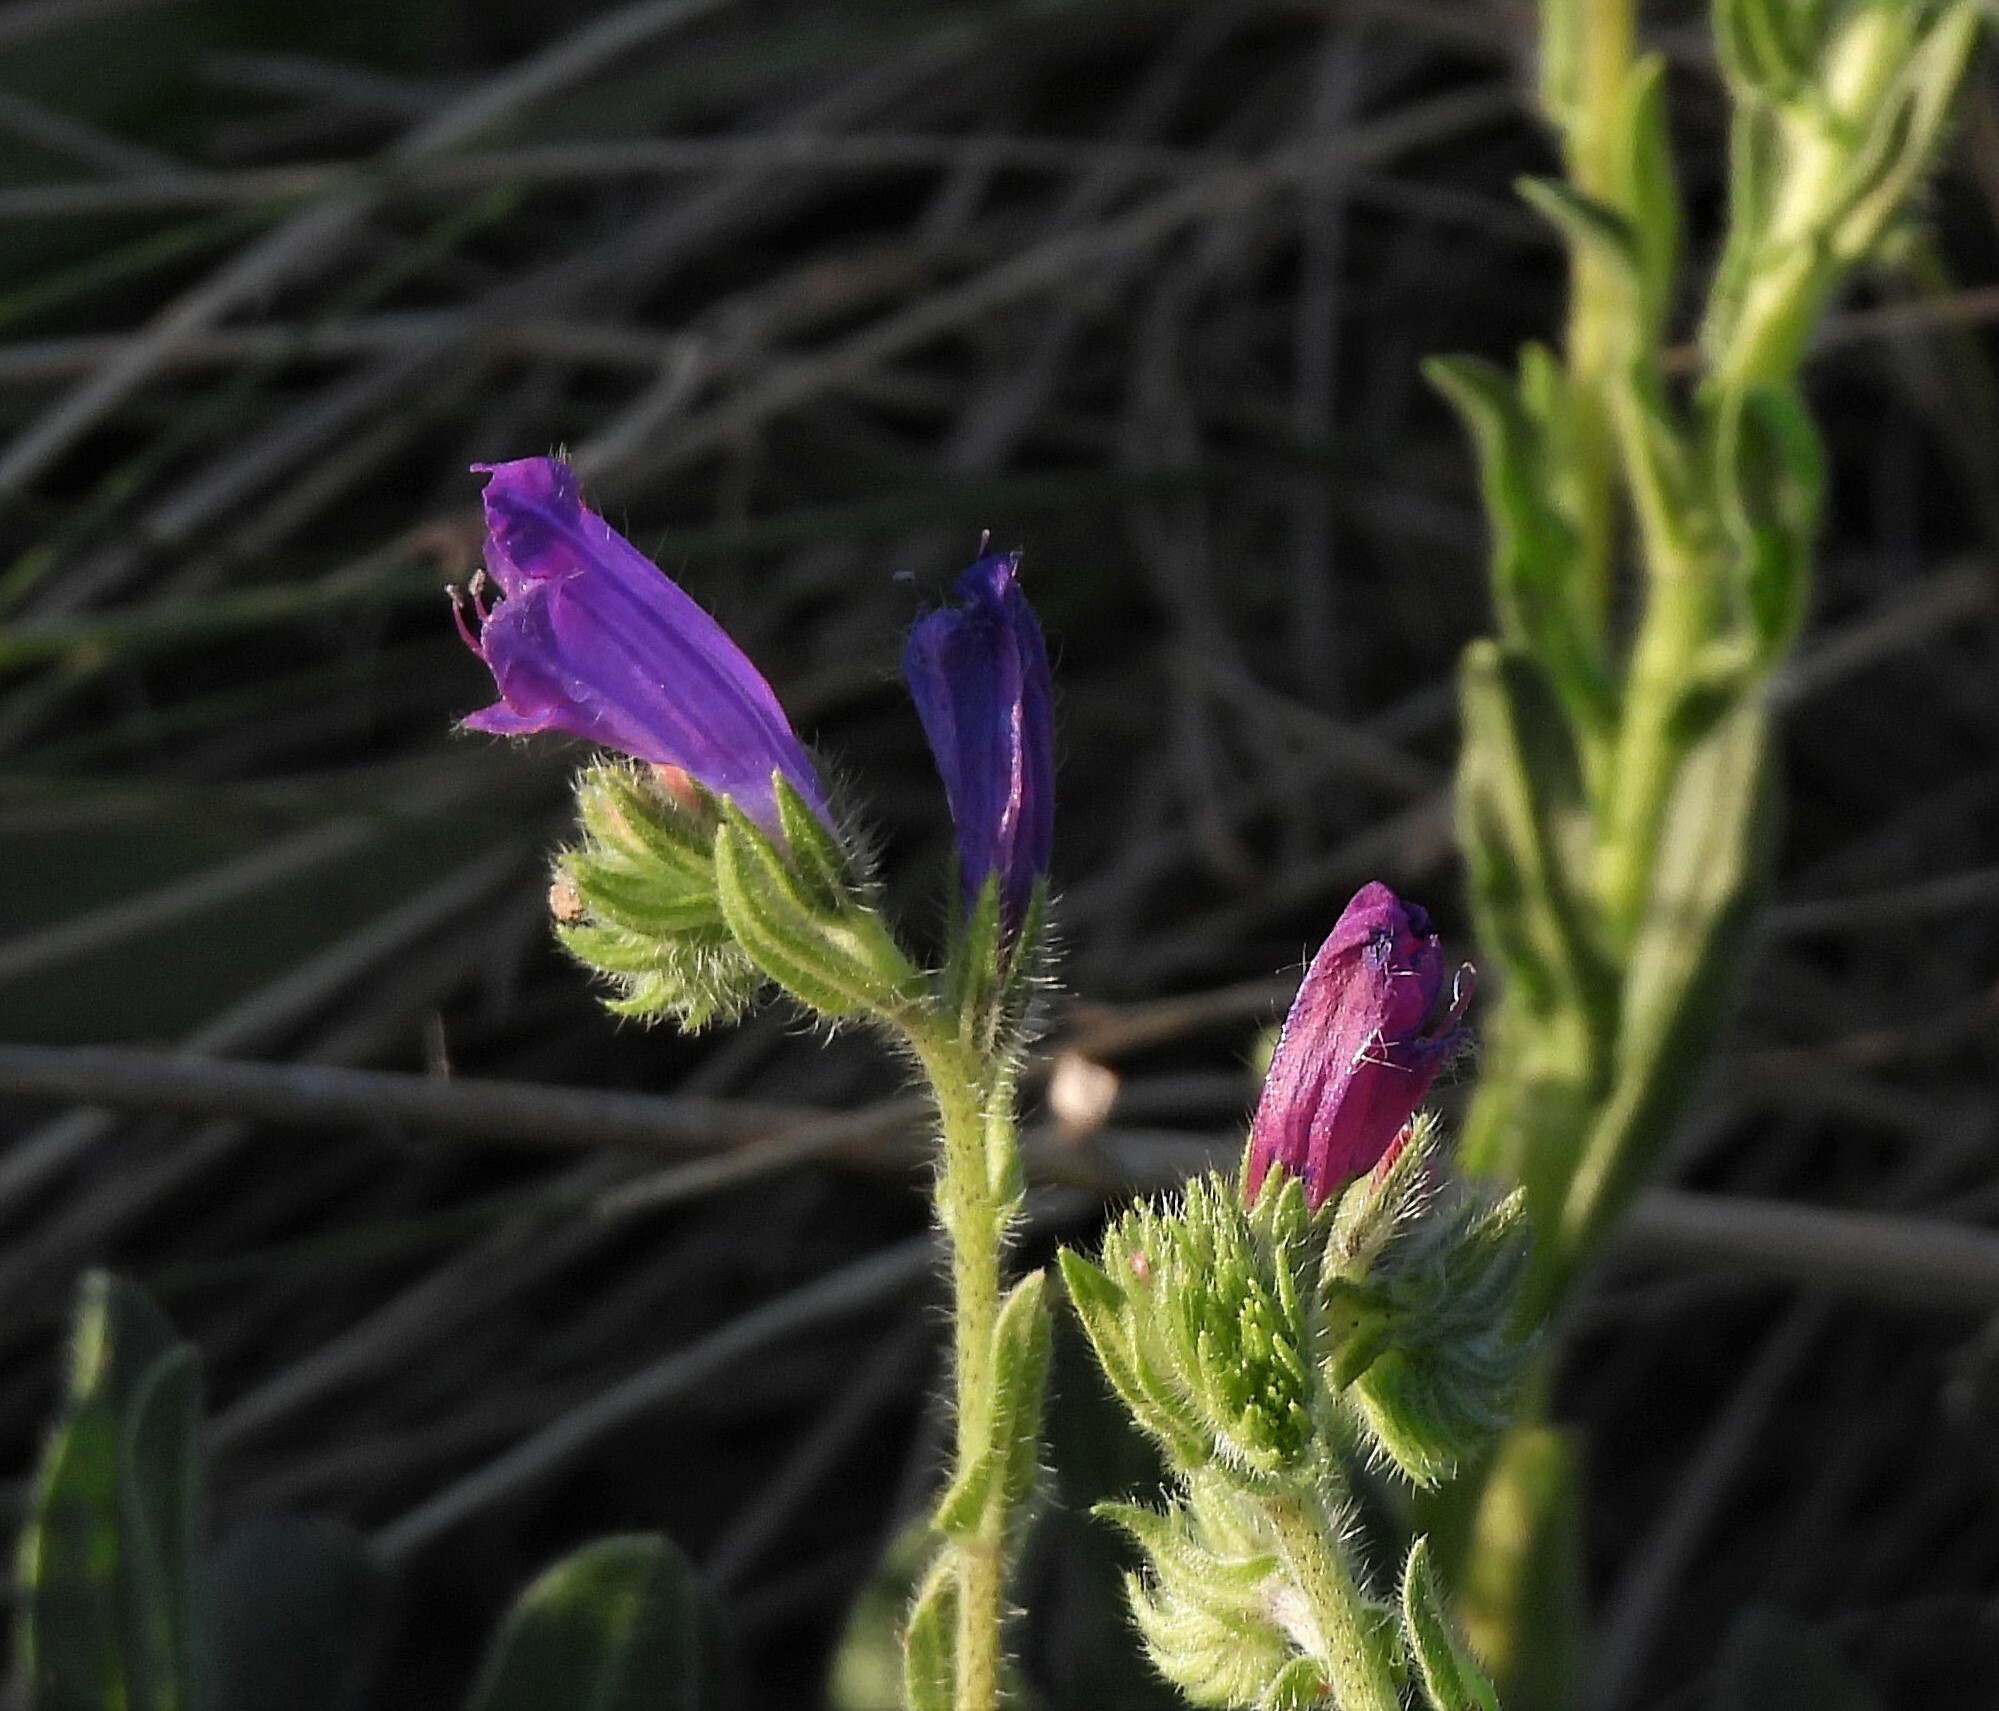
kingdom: Plantae
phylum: Tracheophyta
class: Magnoliopsida
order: Boraginales
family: Boraginaceae
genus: Echium
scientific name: Echium plantagineum
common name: Purple viper's-bugloss
